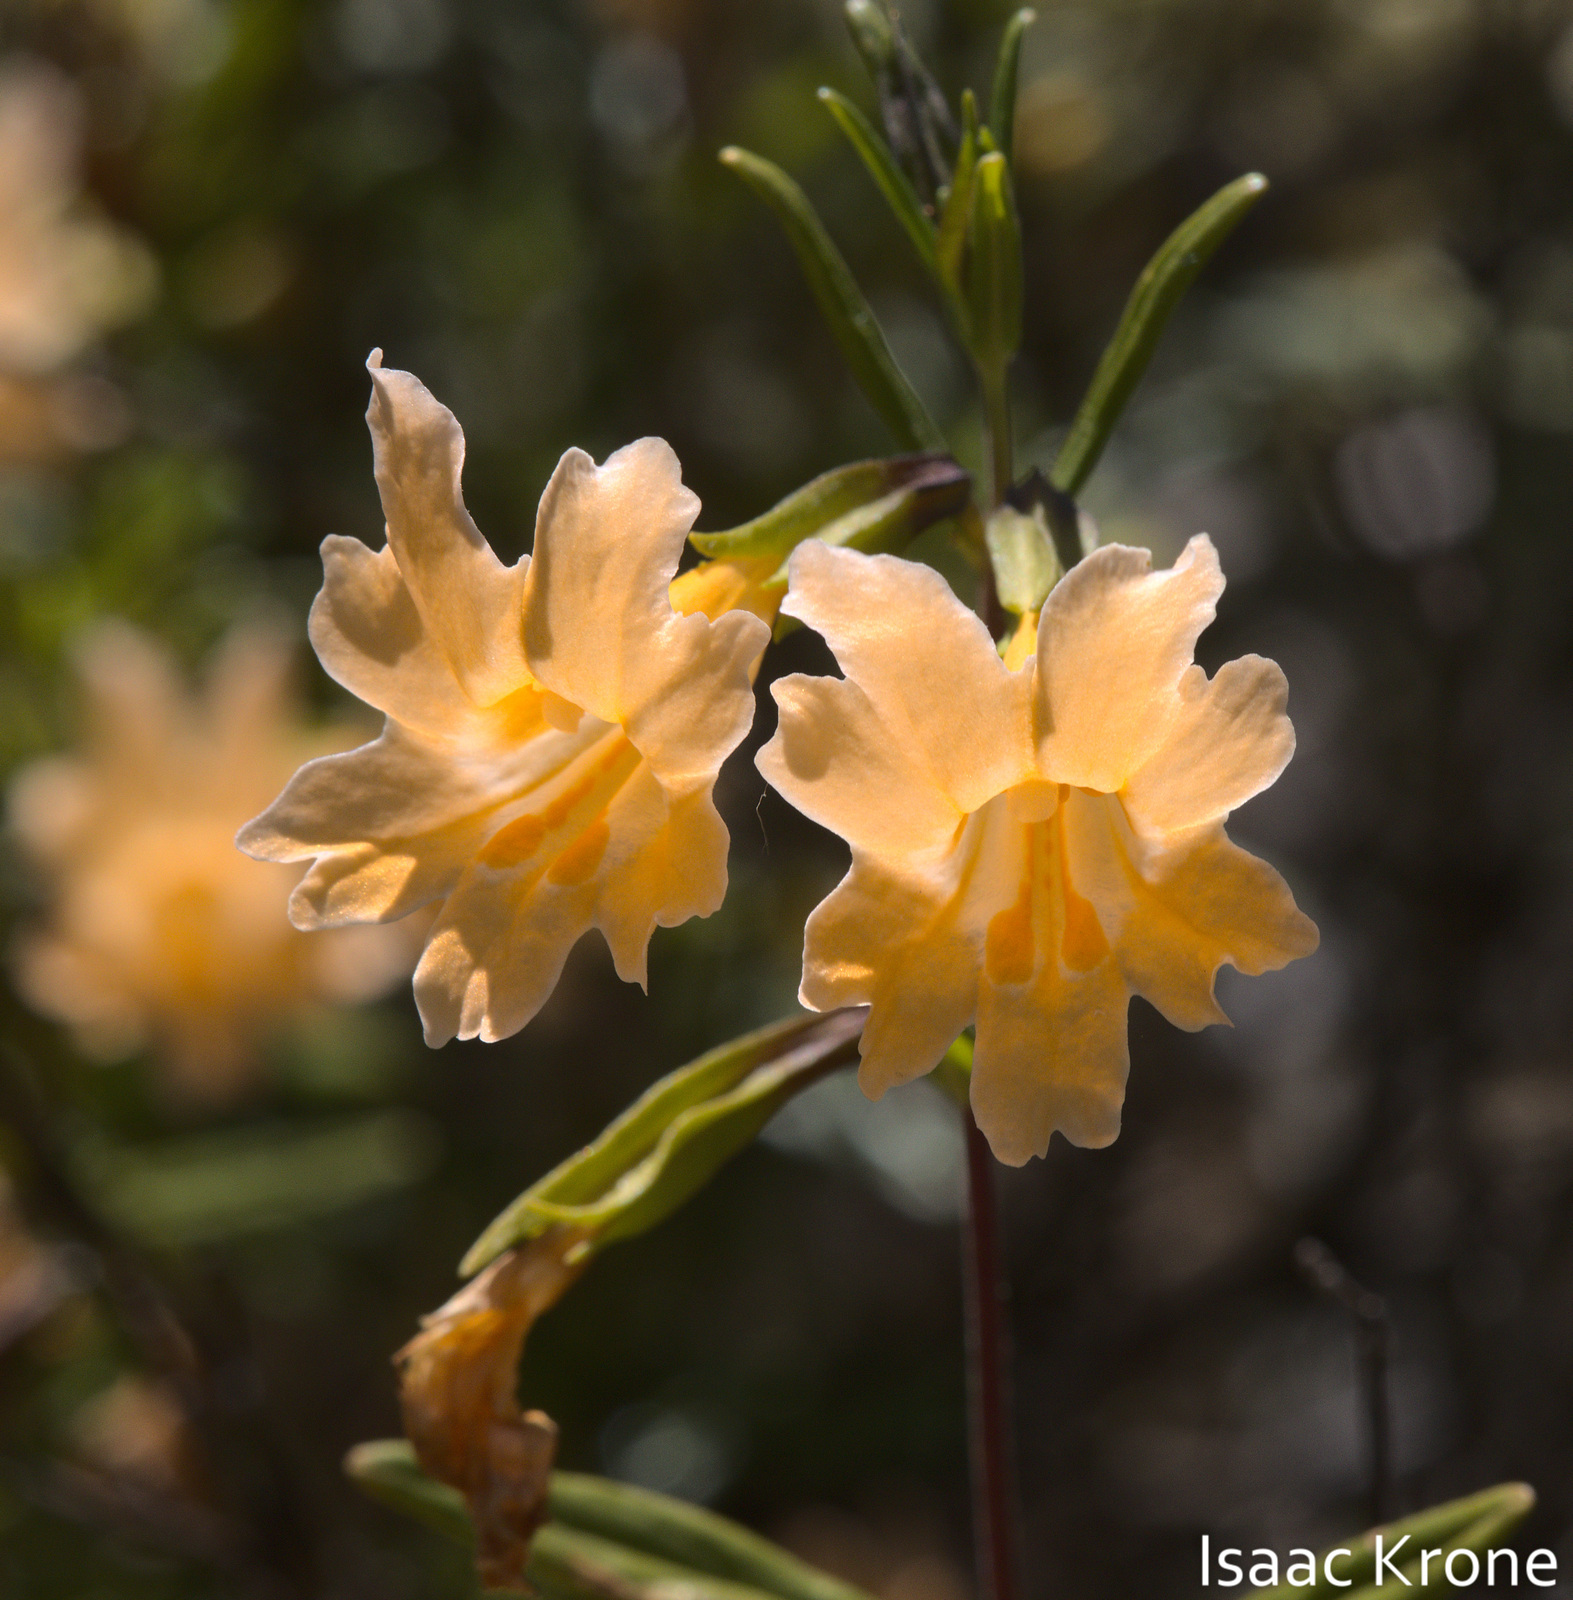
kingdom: Plantae
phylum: Tracheophyta
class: Magnoliopsida
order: Lamiales
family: Phrymaceae
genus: Diplacus
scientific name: Diplacus linearis
